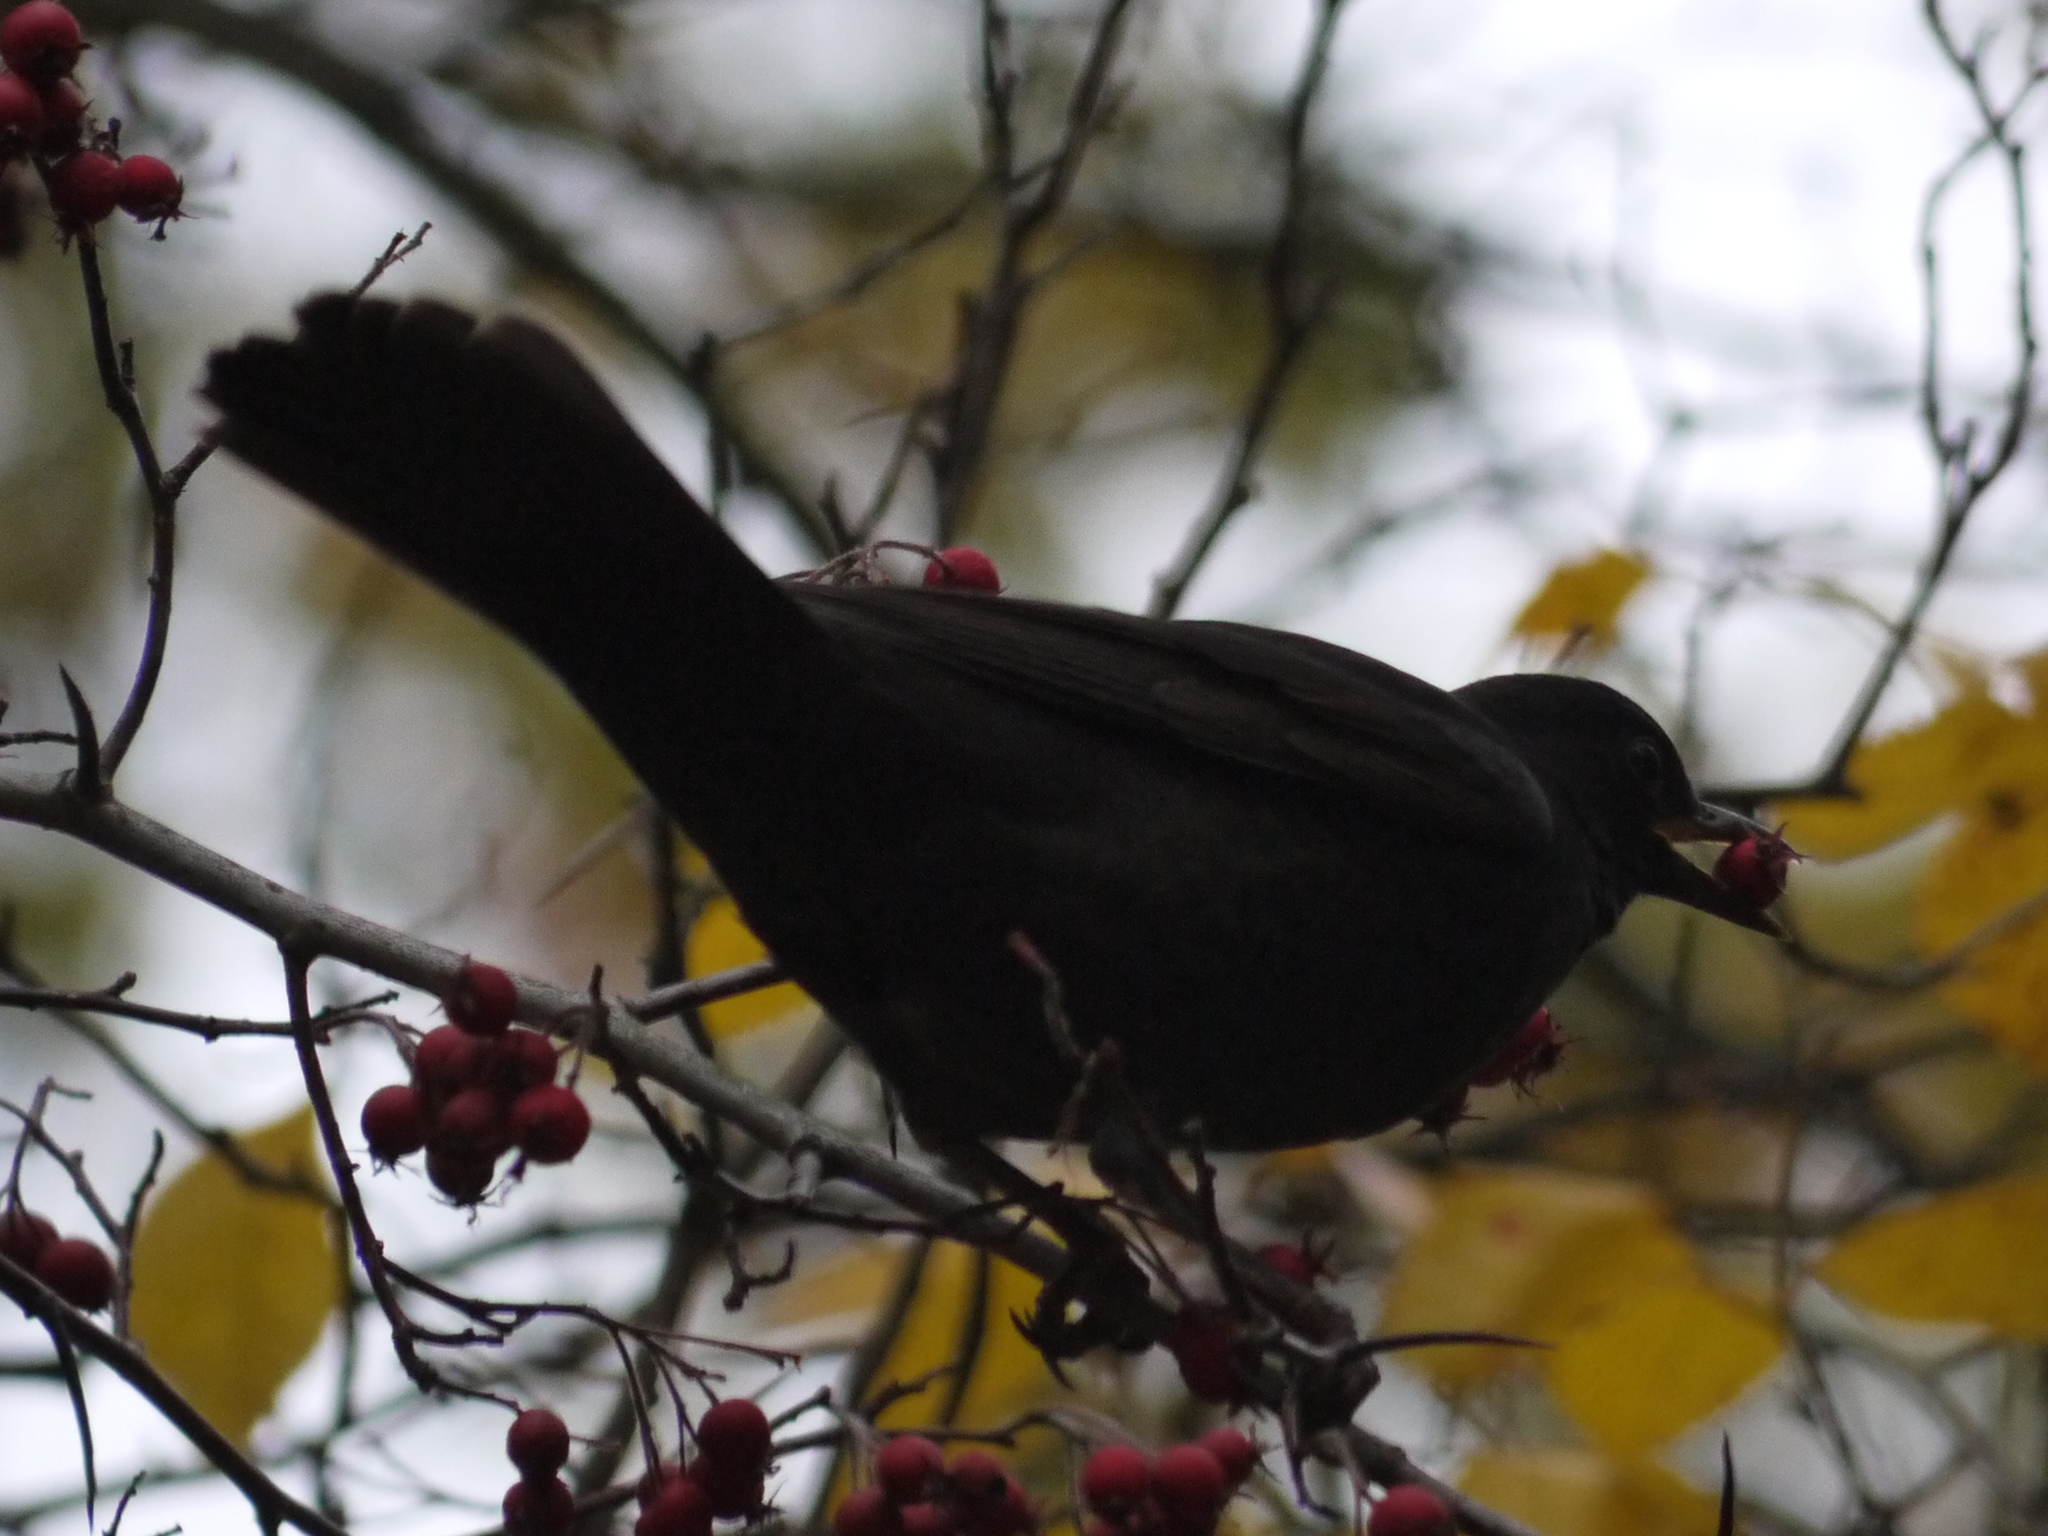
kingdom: Animalia
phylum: Chordata
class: Aves
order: Passeriformes
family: Turdidae
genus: Turdus
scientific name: Turdus merula
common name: Common blackbird
